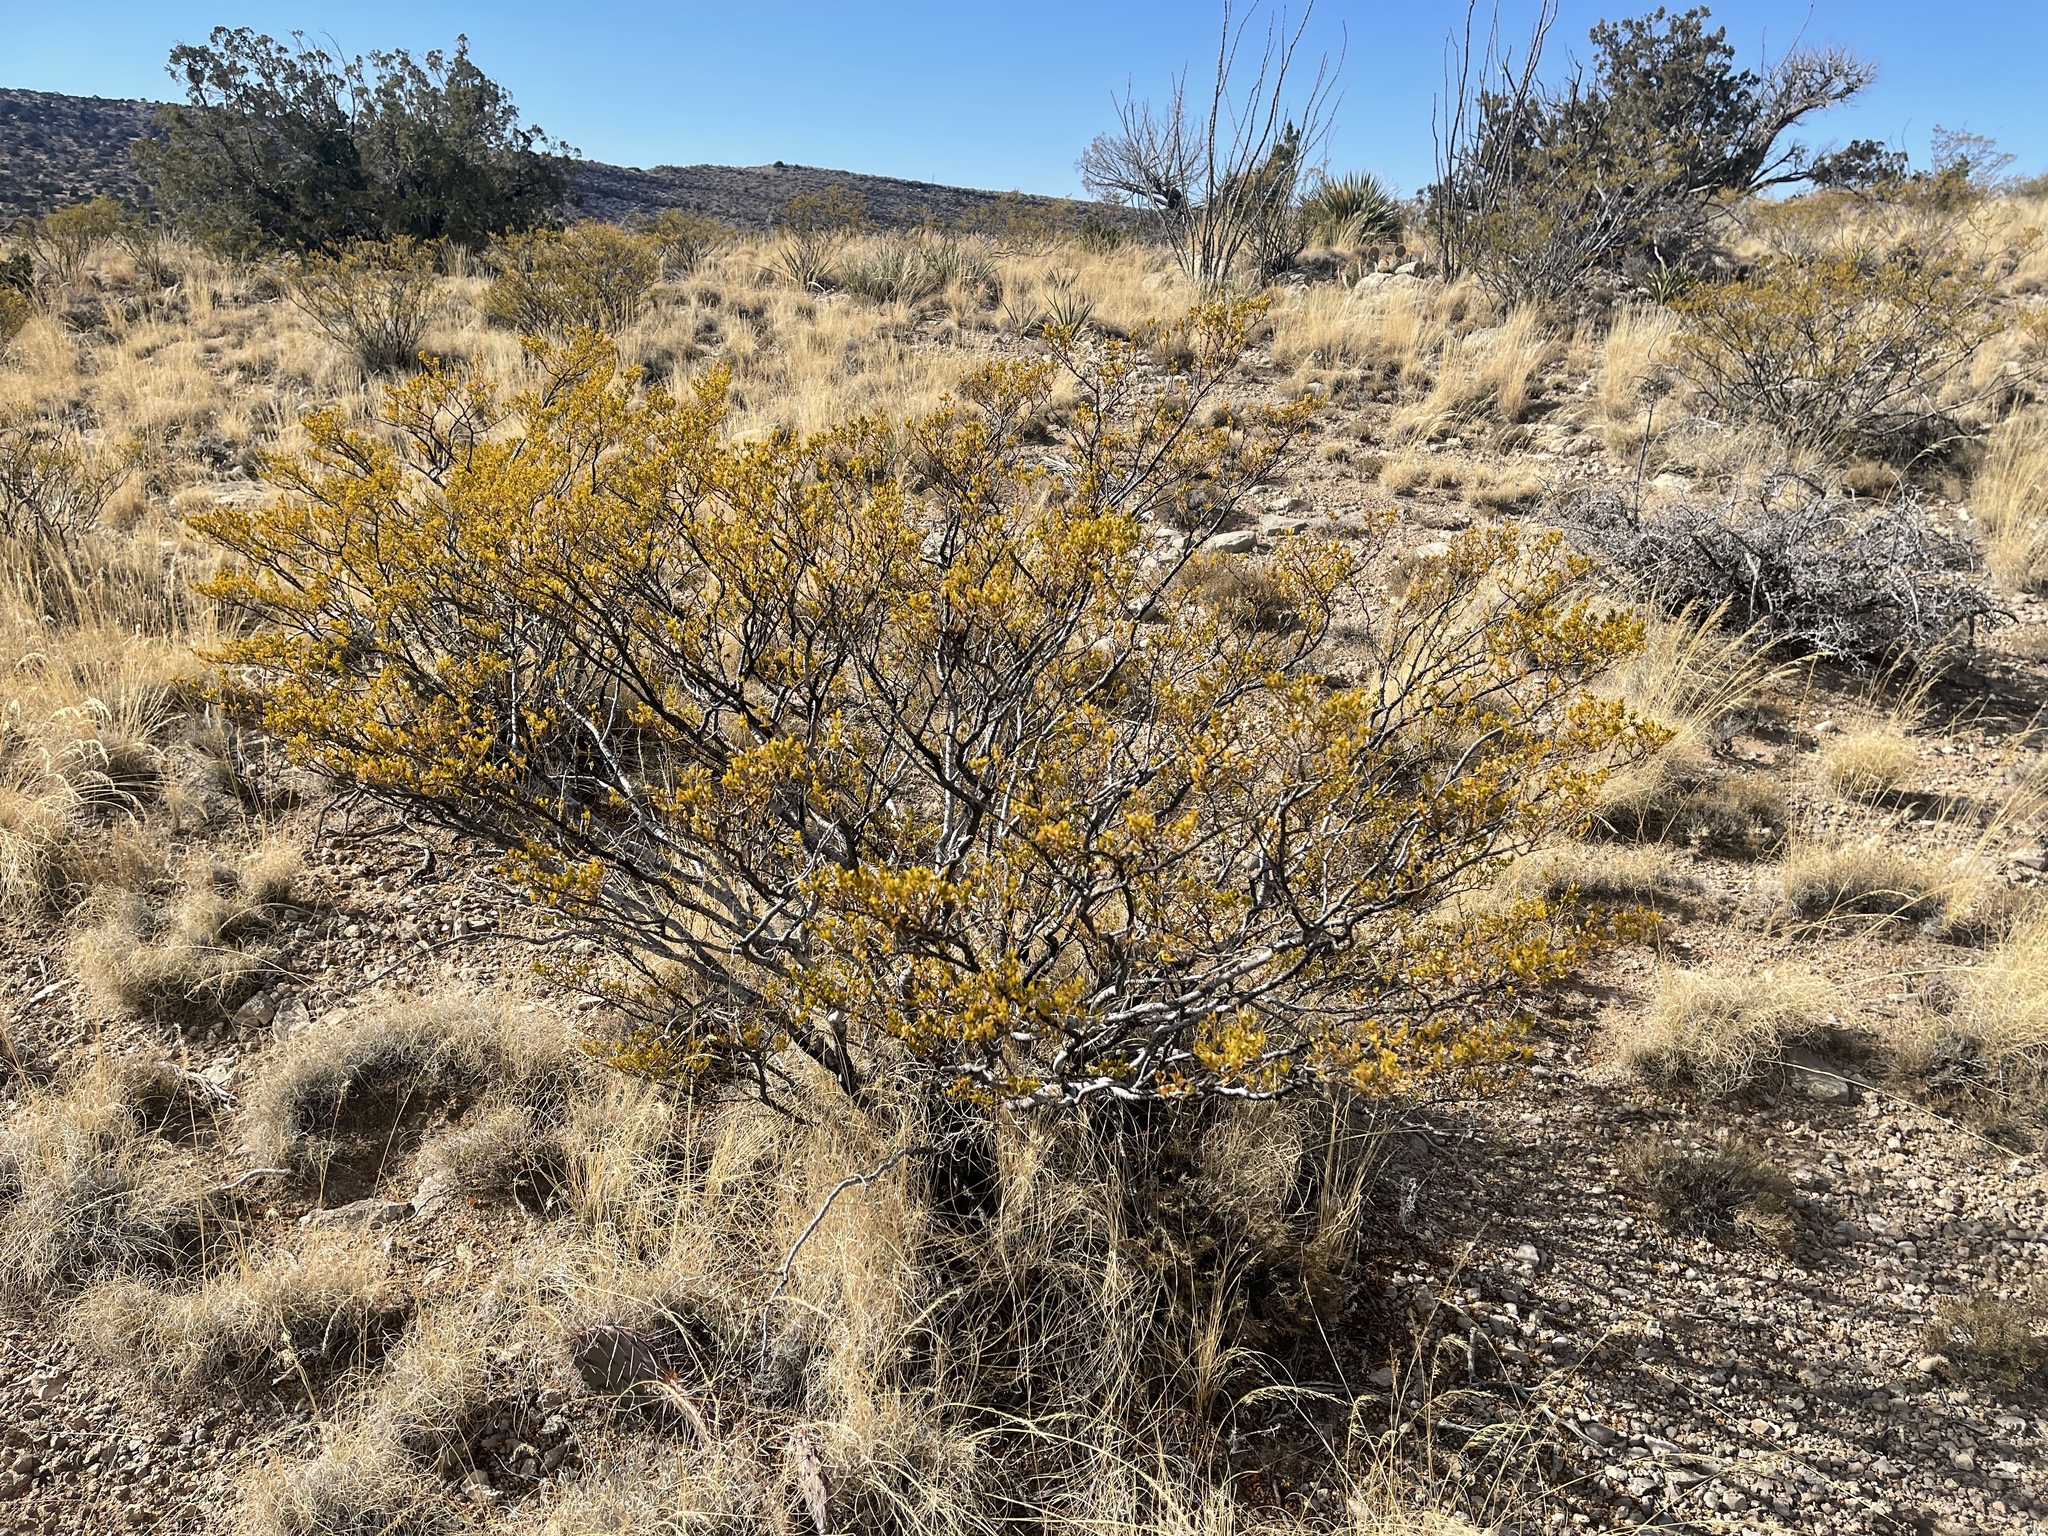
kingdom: Plantae
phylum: Tracheophyta
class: Magnoliopsida
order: Zygophyllales
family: Zygophyllaceae
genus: Larrea
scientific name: Larrea tridentata
